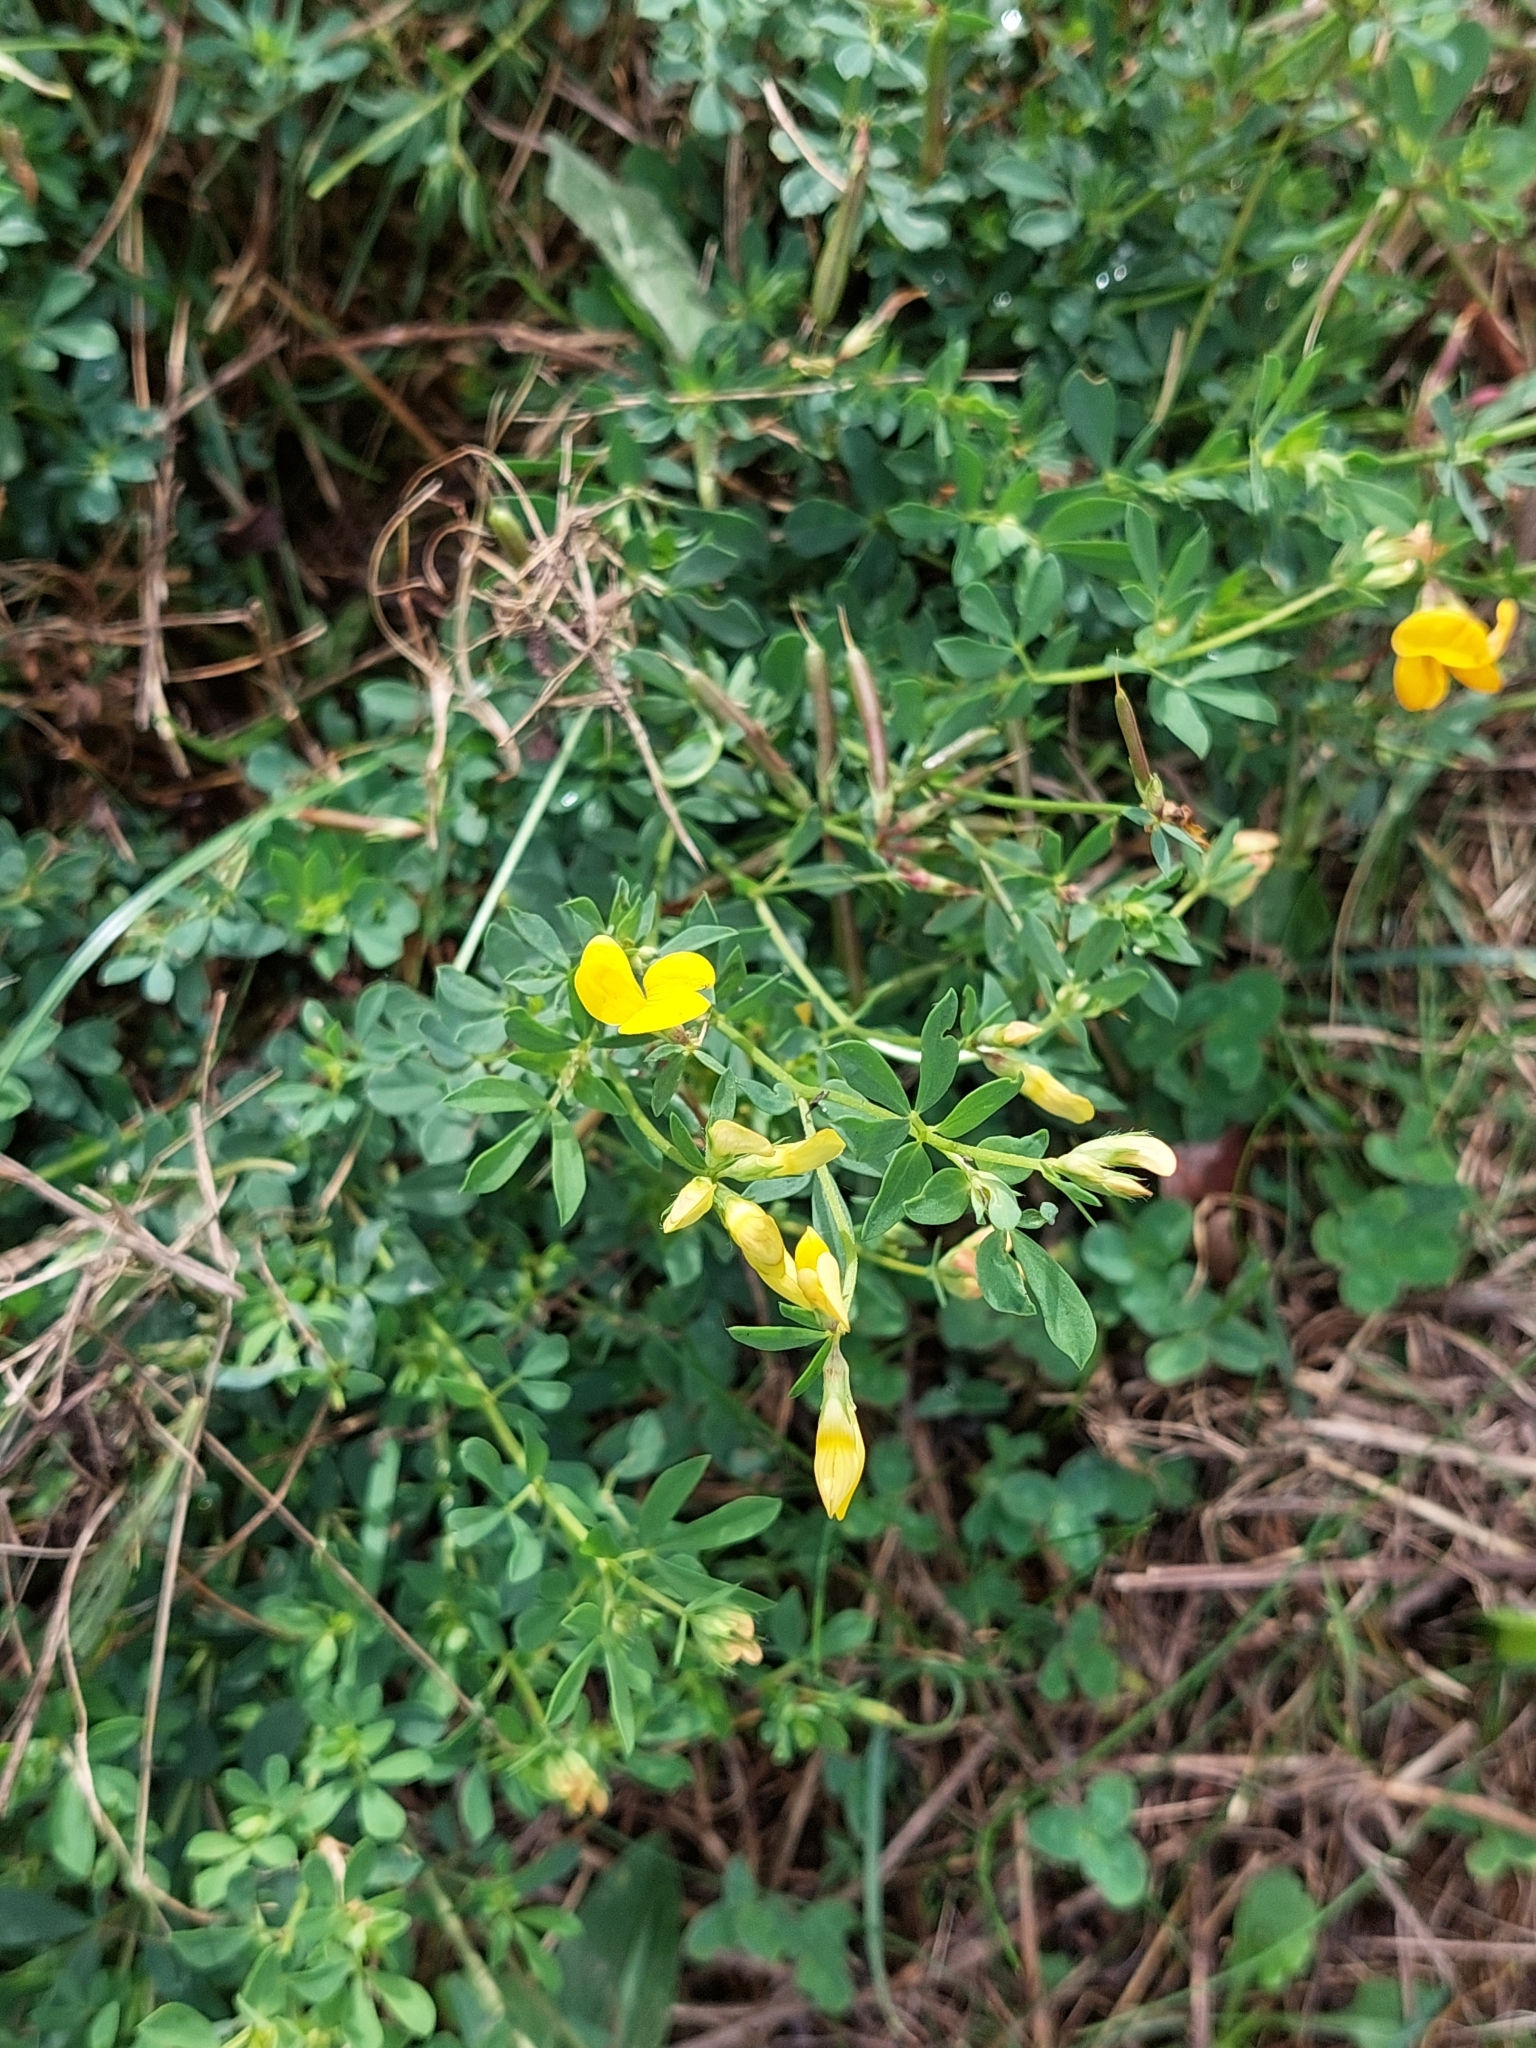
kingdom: Plantae
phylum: Tracheophyta
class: Magnoliopsida
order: Fabales
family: Fabaceae
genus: Lotus
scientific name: Lotus corniculatus
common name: Common bird's-foot-trefoil
